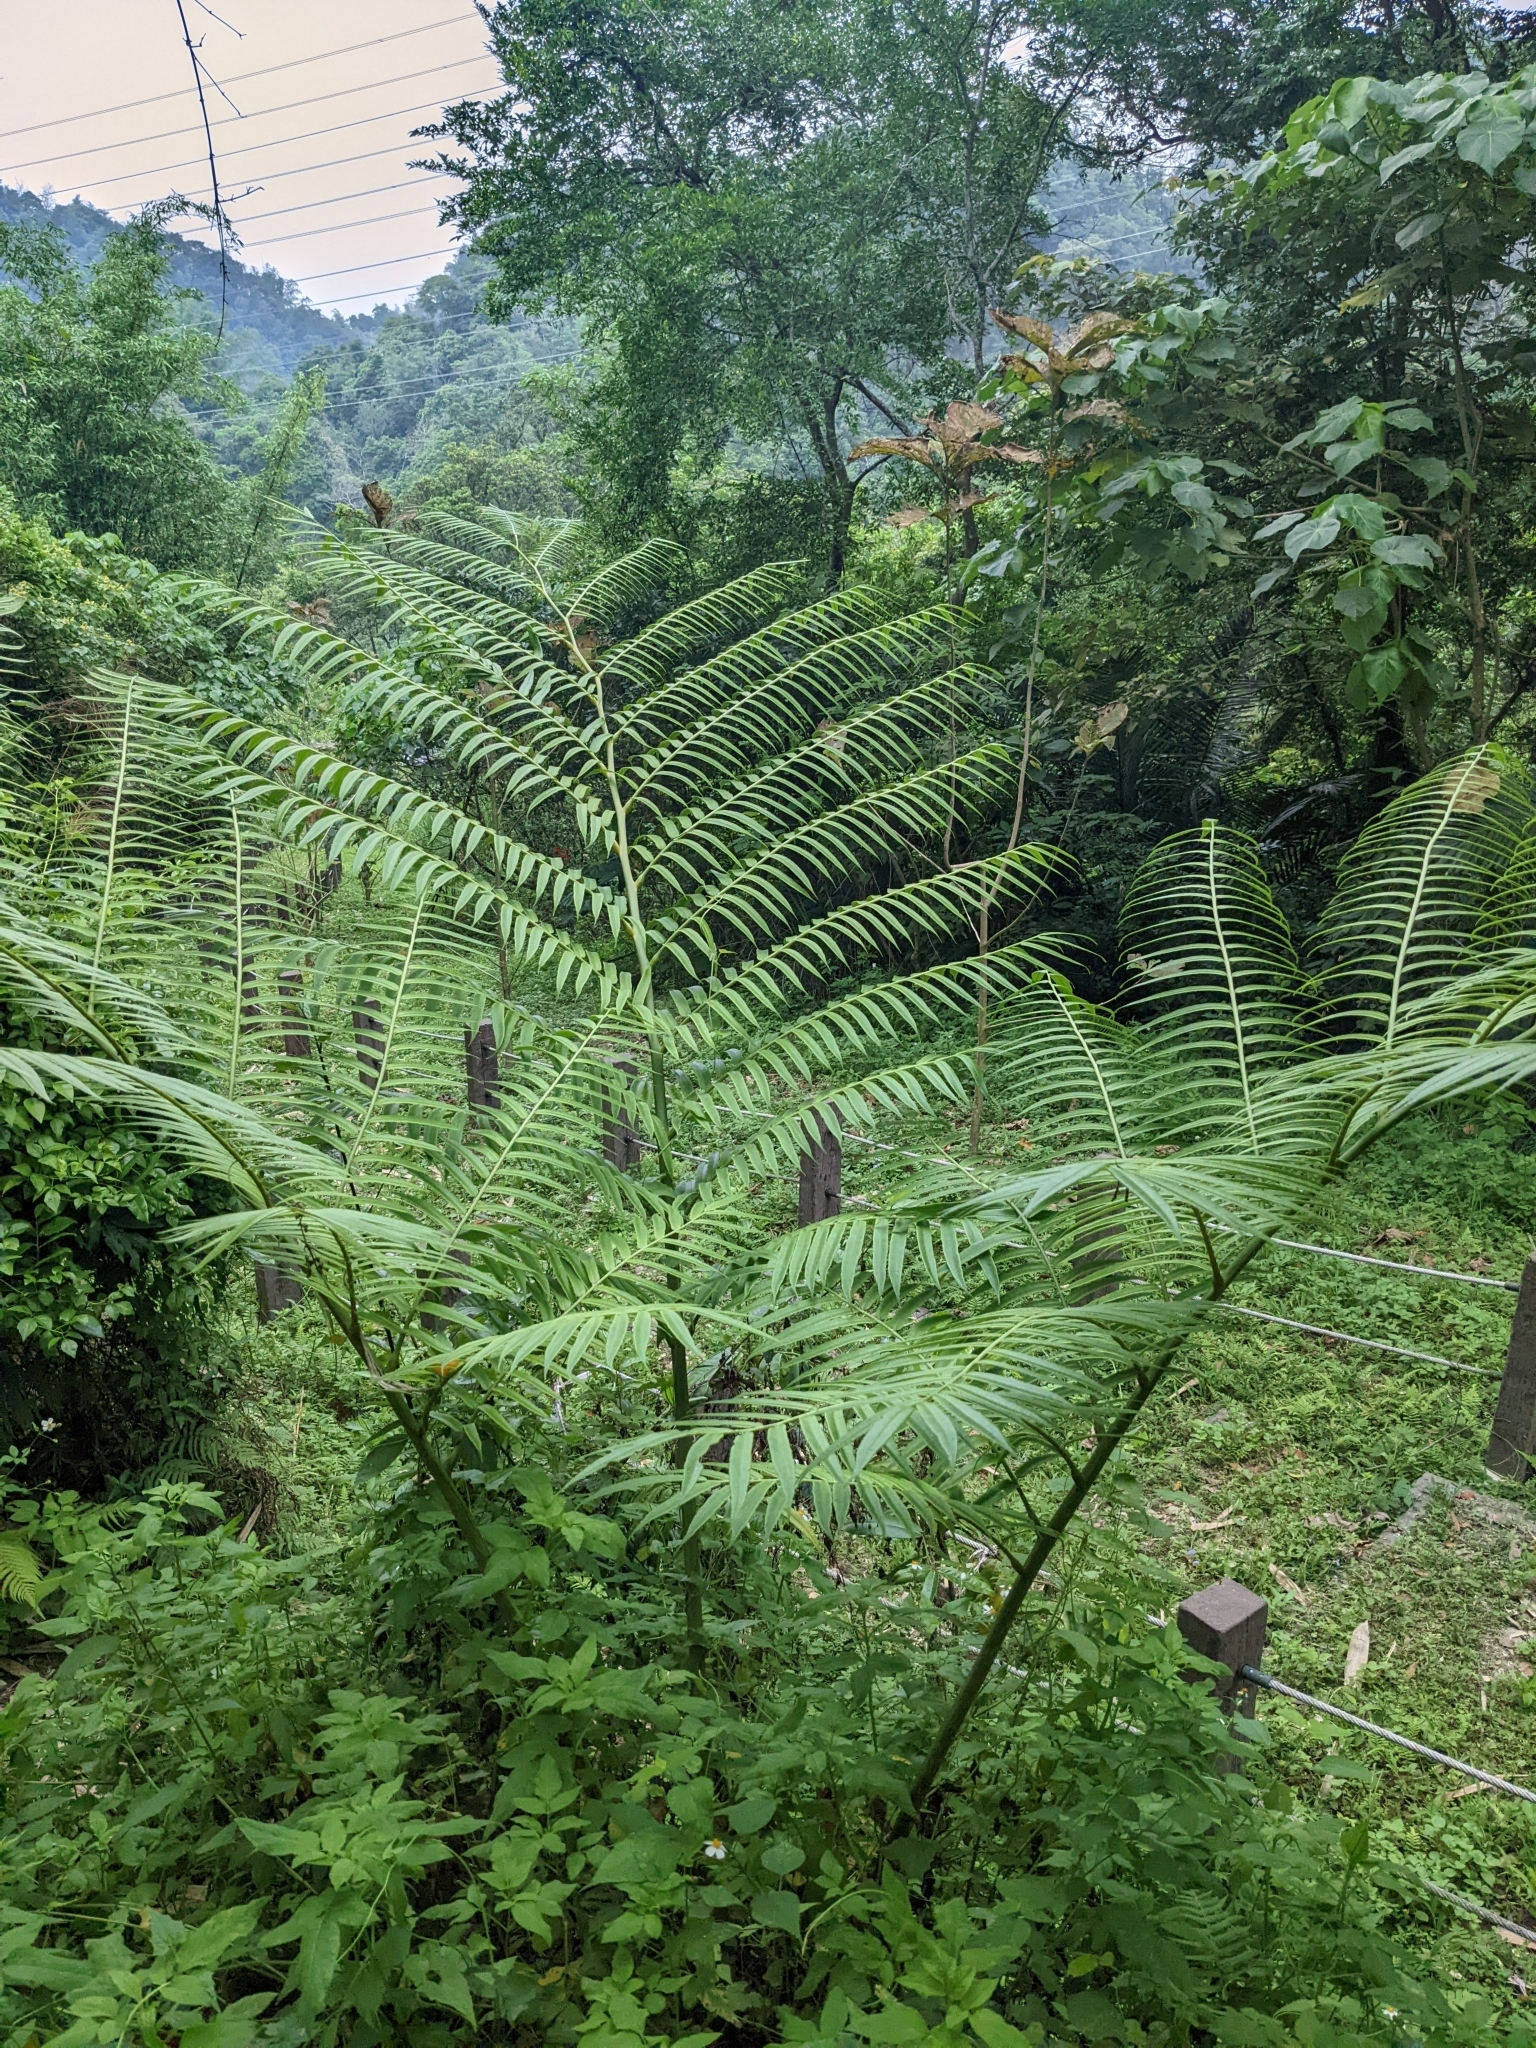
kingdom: Plantae
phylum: Tracheophyta
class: Polypodiopsida
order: Polypodiales
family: Pteridaceae
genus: Pteris
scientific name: Pteris wallichiana
